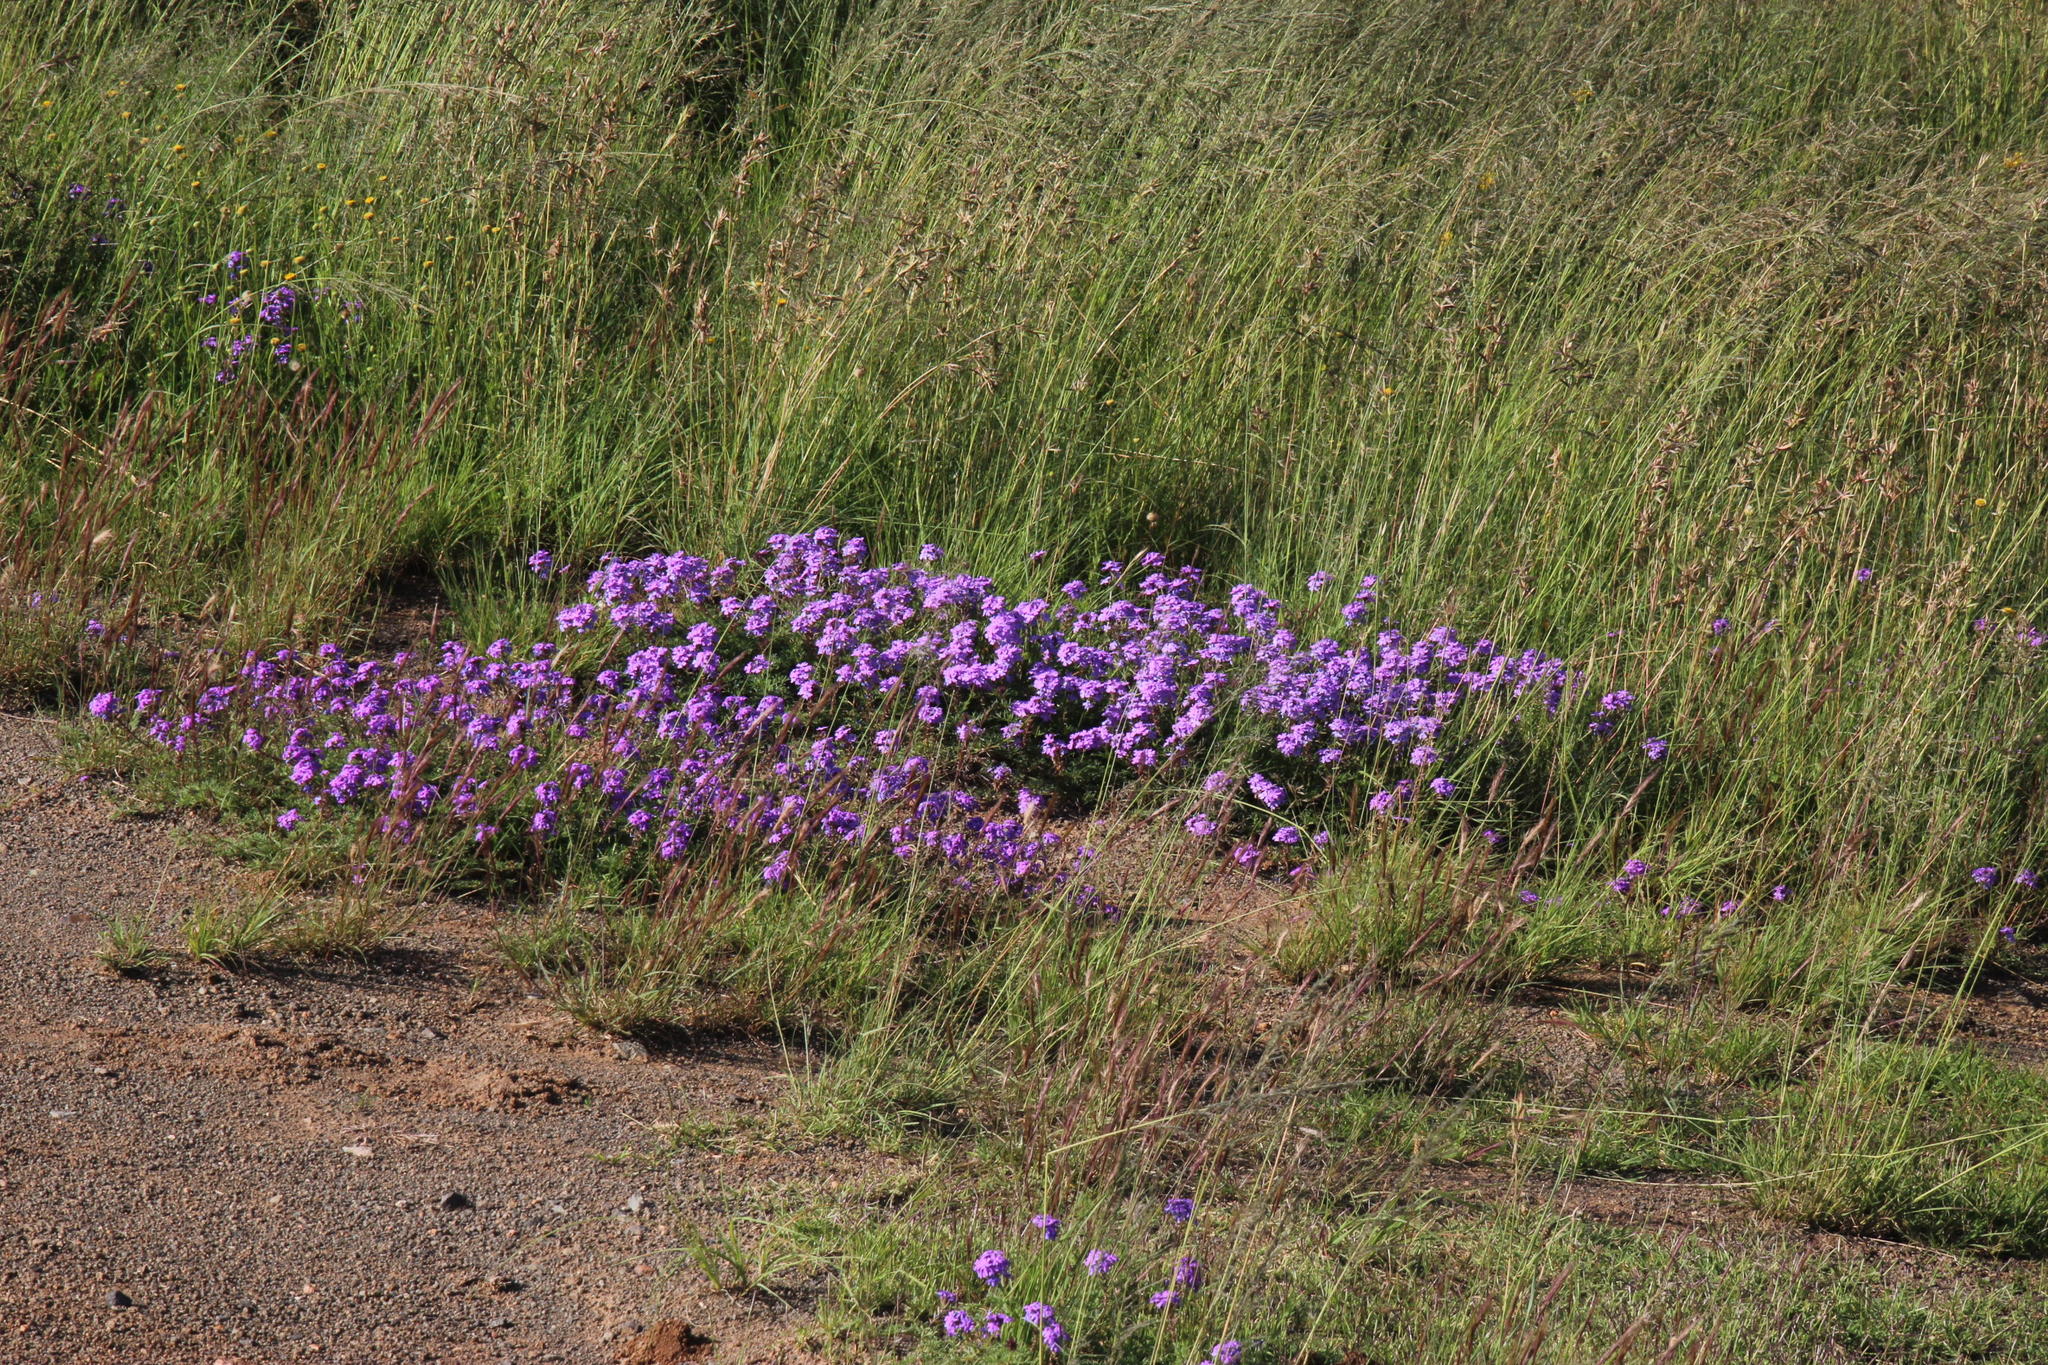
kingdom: Plantae
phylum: Tracheophyta
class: Magnoliopsida
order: Lamiales
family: Verbenaceae
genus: Verbena
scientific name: Verbena aristigera
